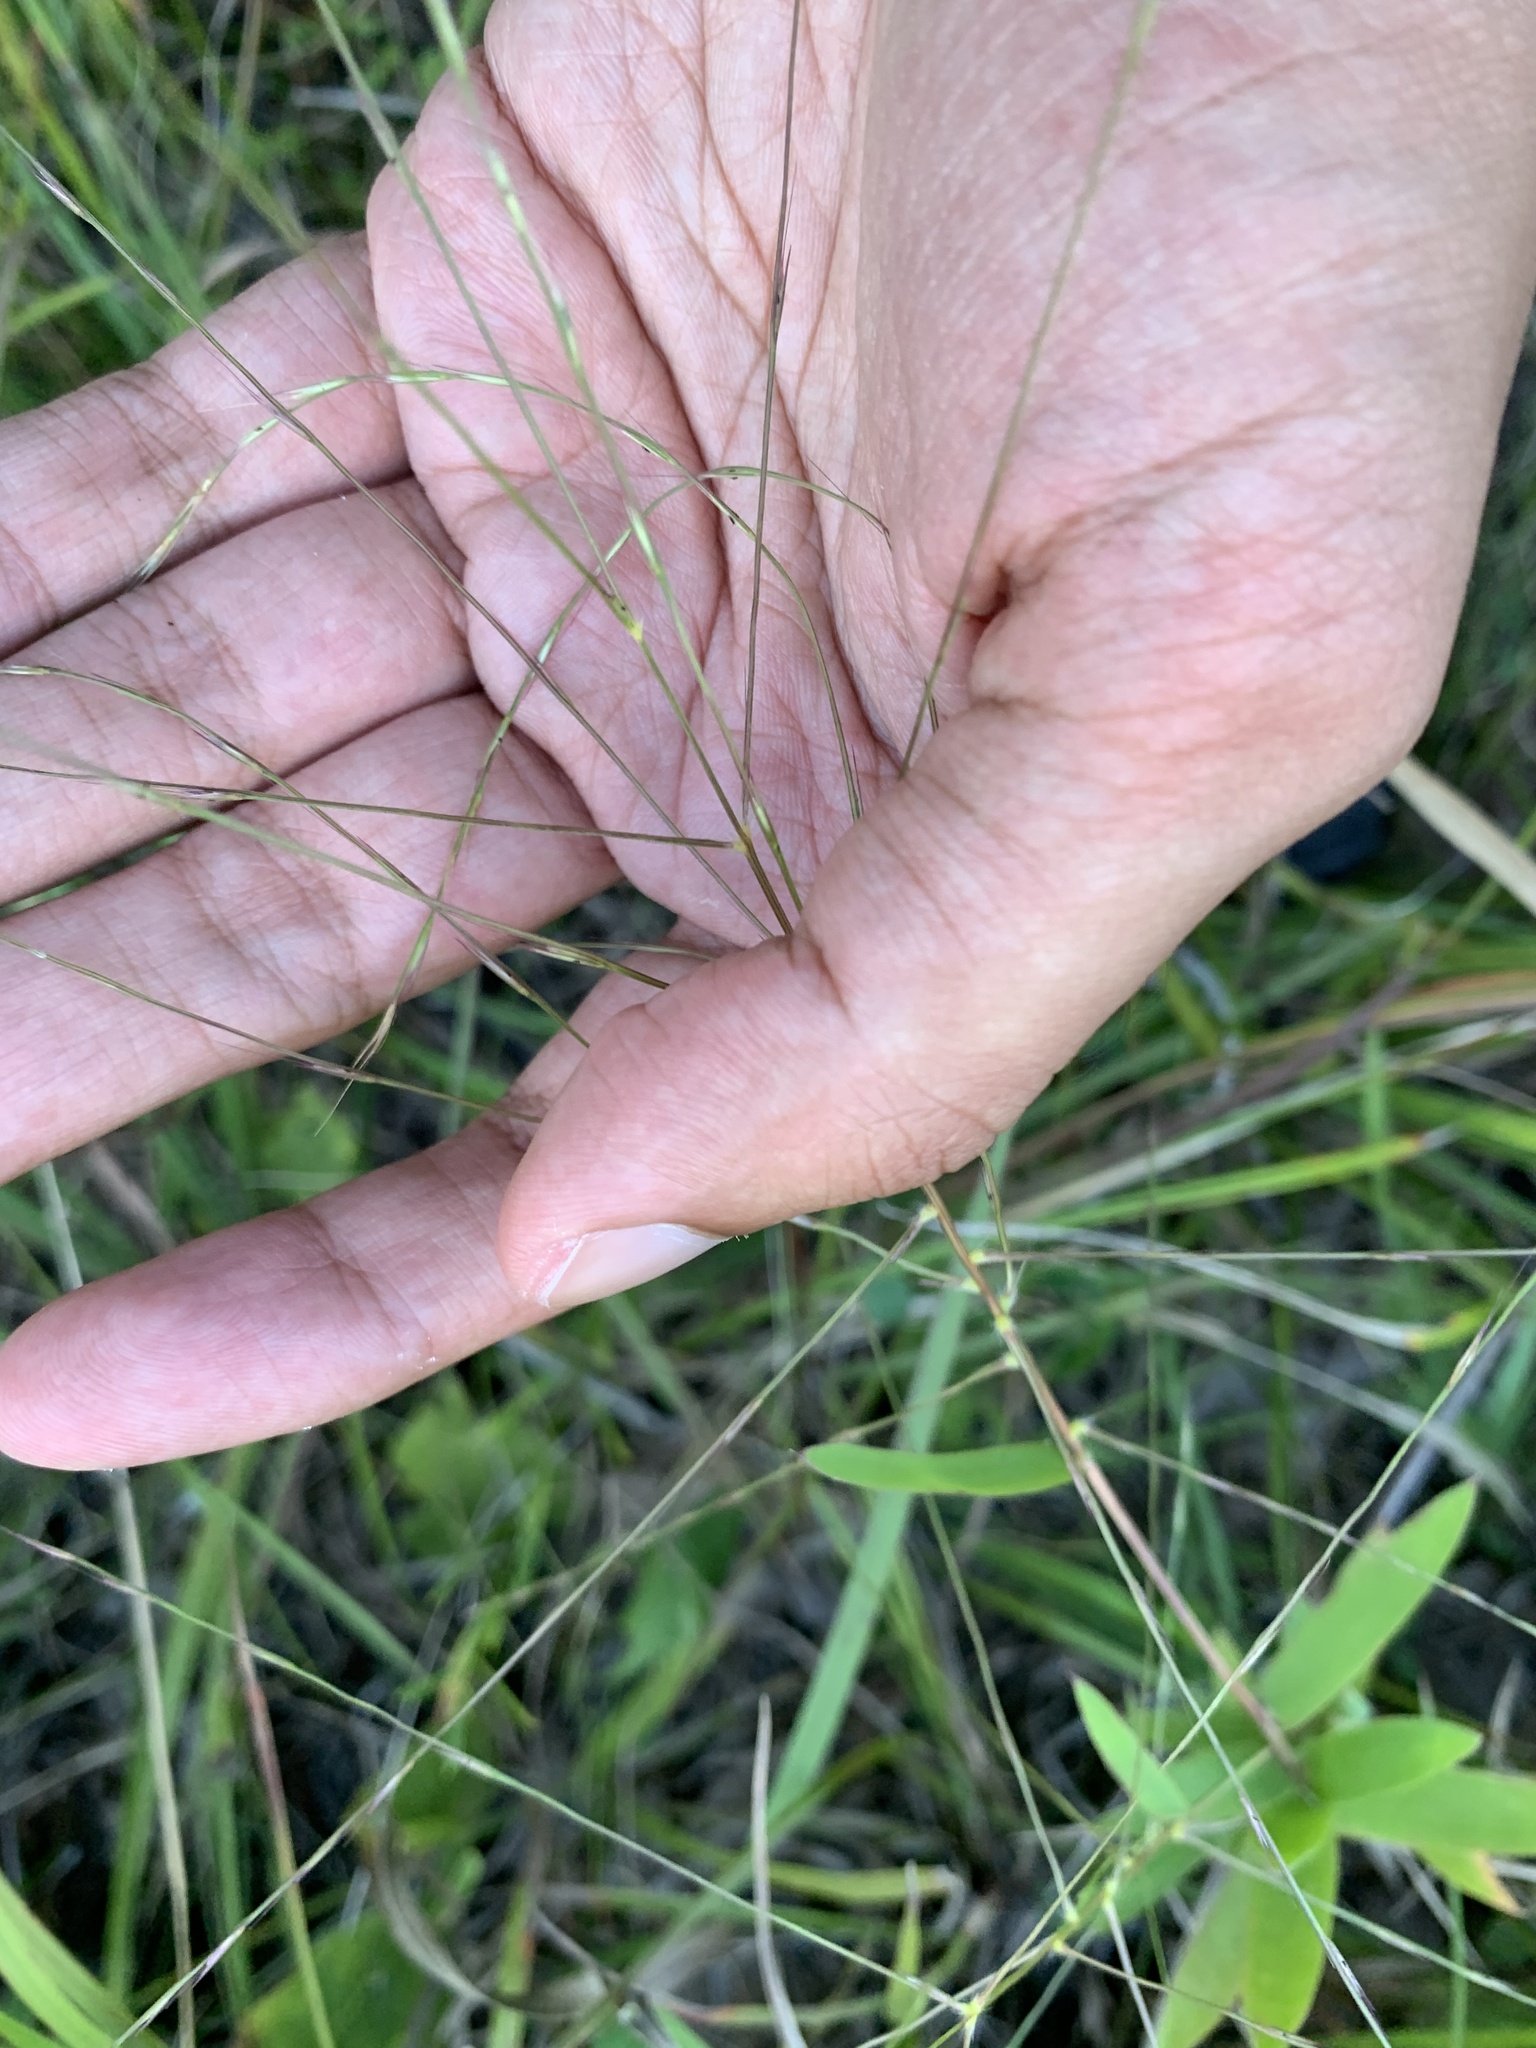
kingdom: Plantae
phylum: Tracheophyta
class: Liliopsida
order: Poales
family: Poaceae
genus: Gymnopogon
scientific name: Gymnopogon ambiguus
